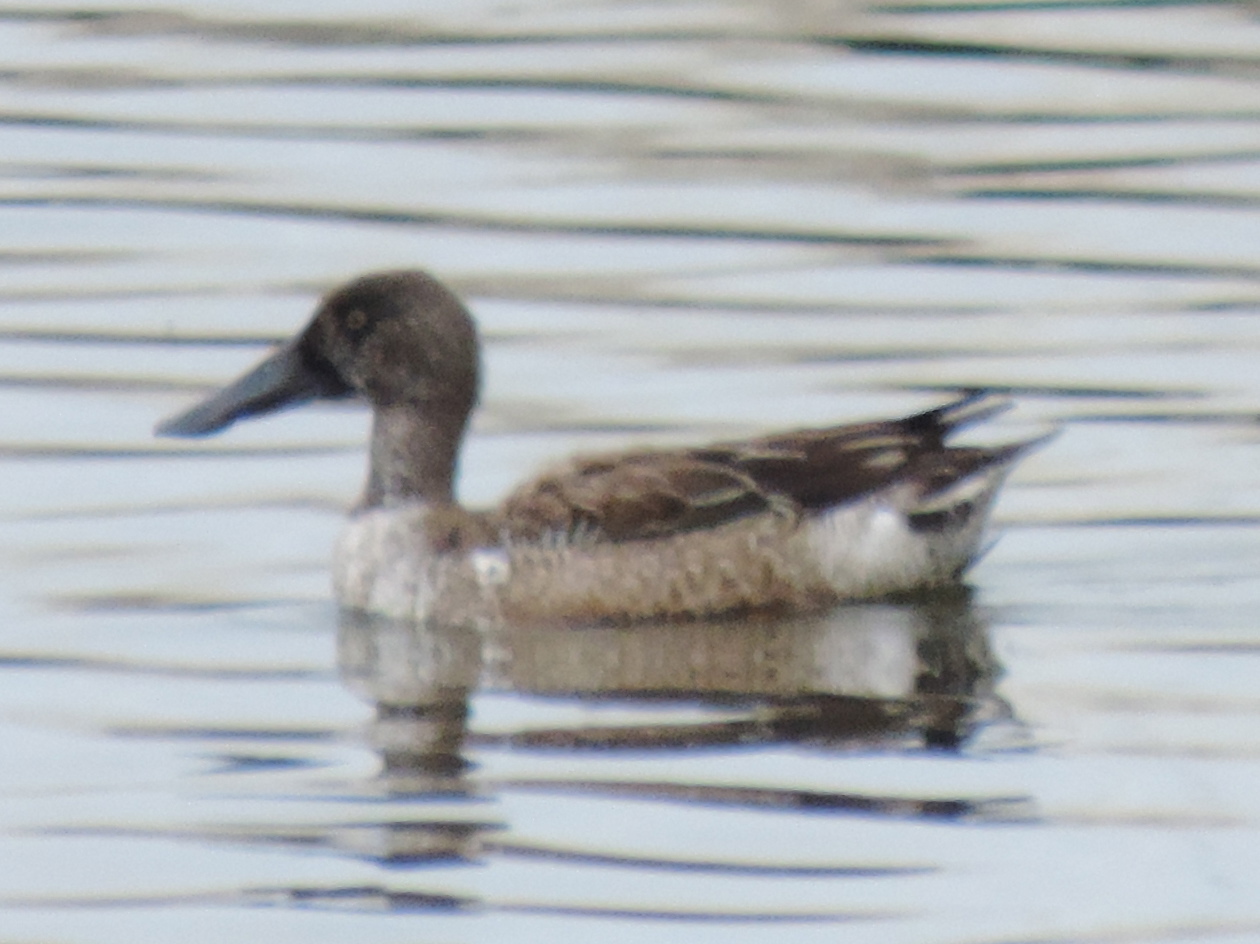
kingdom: Animalia
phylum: Chordata
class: Aves
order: Anseriformes
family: Anatidae
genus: Spatula
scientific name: Spatula clypeata
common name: Northern shoveler
